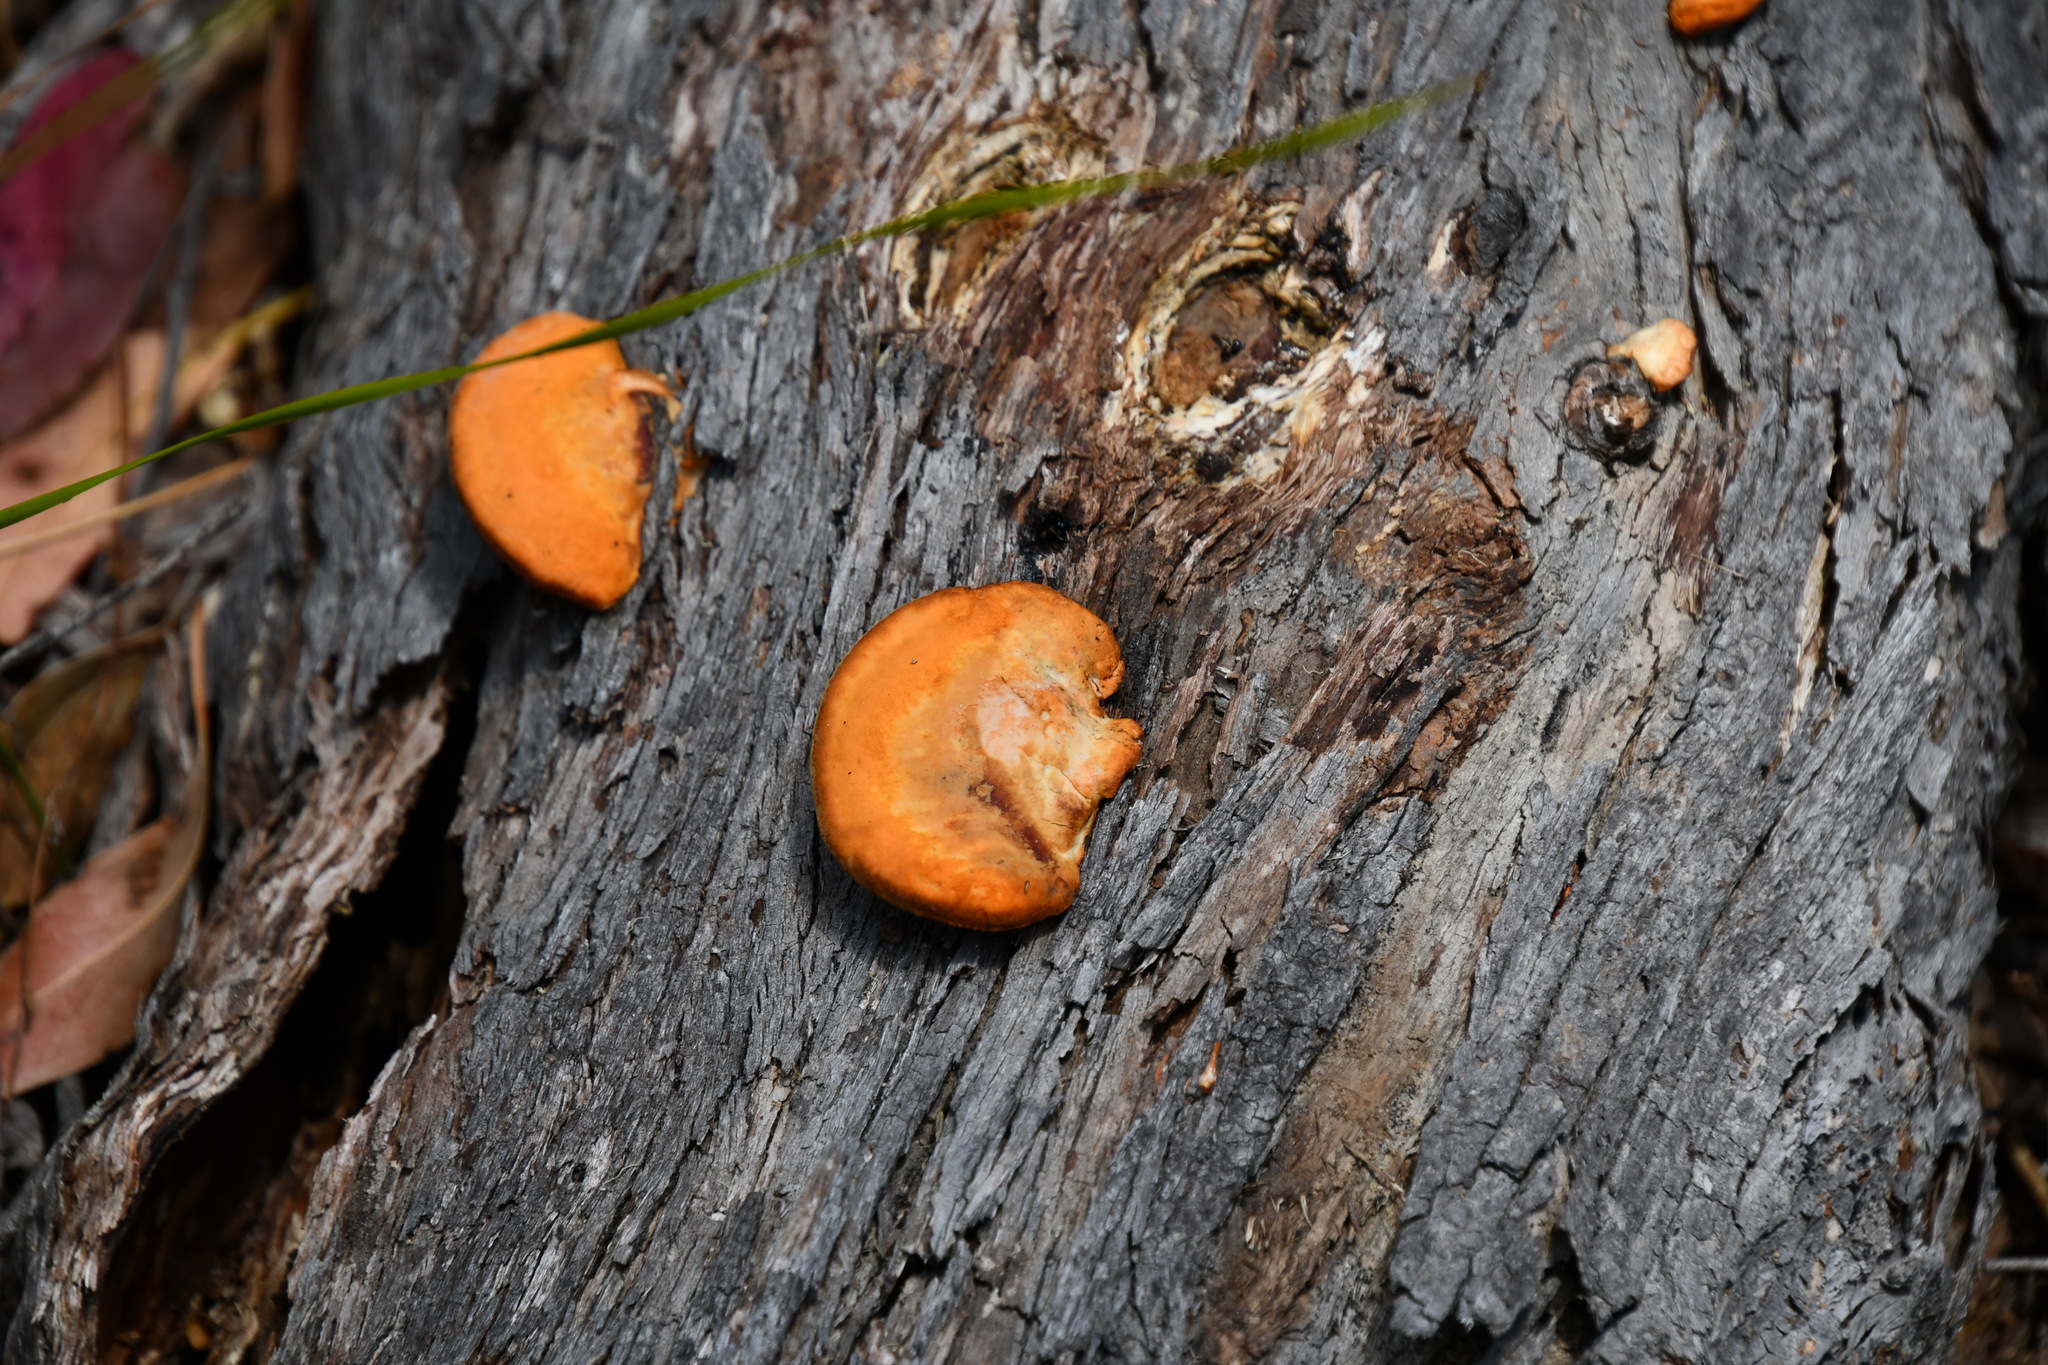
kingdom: Fungi
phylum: Basidiomycota
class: Agaricomycetes
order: Polyporales
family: Polyporaceae
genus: Trametes
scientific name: Trametes coccinea
